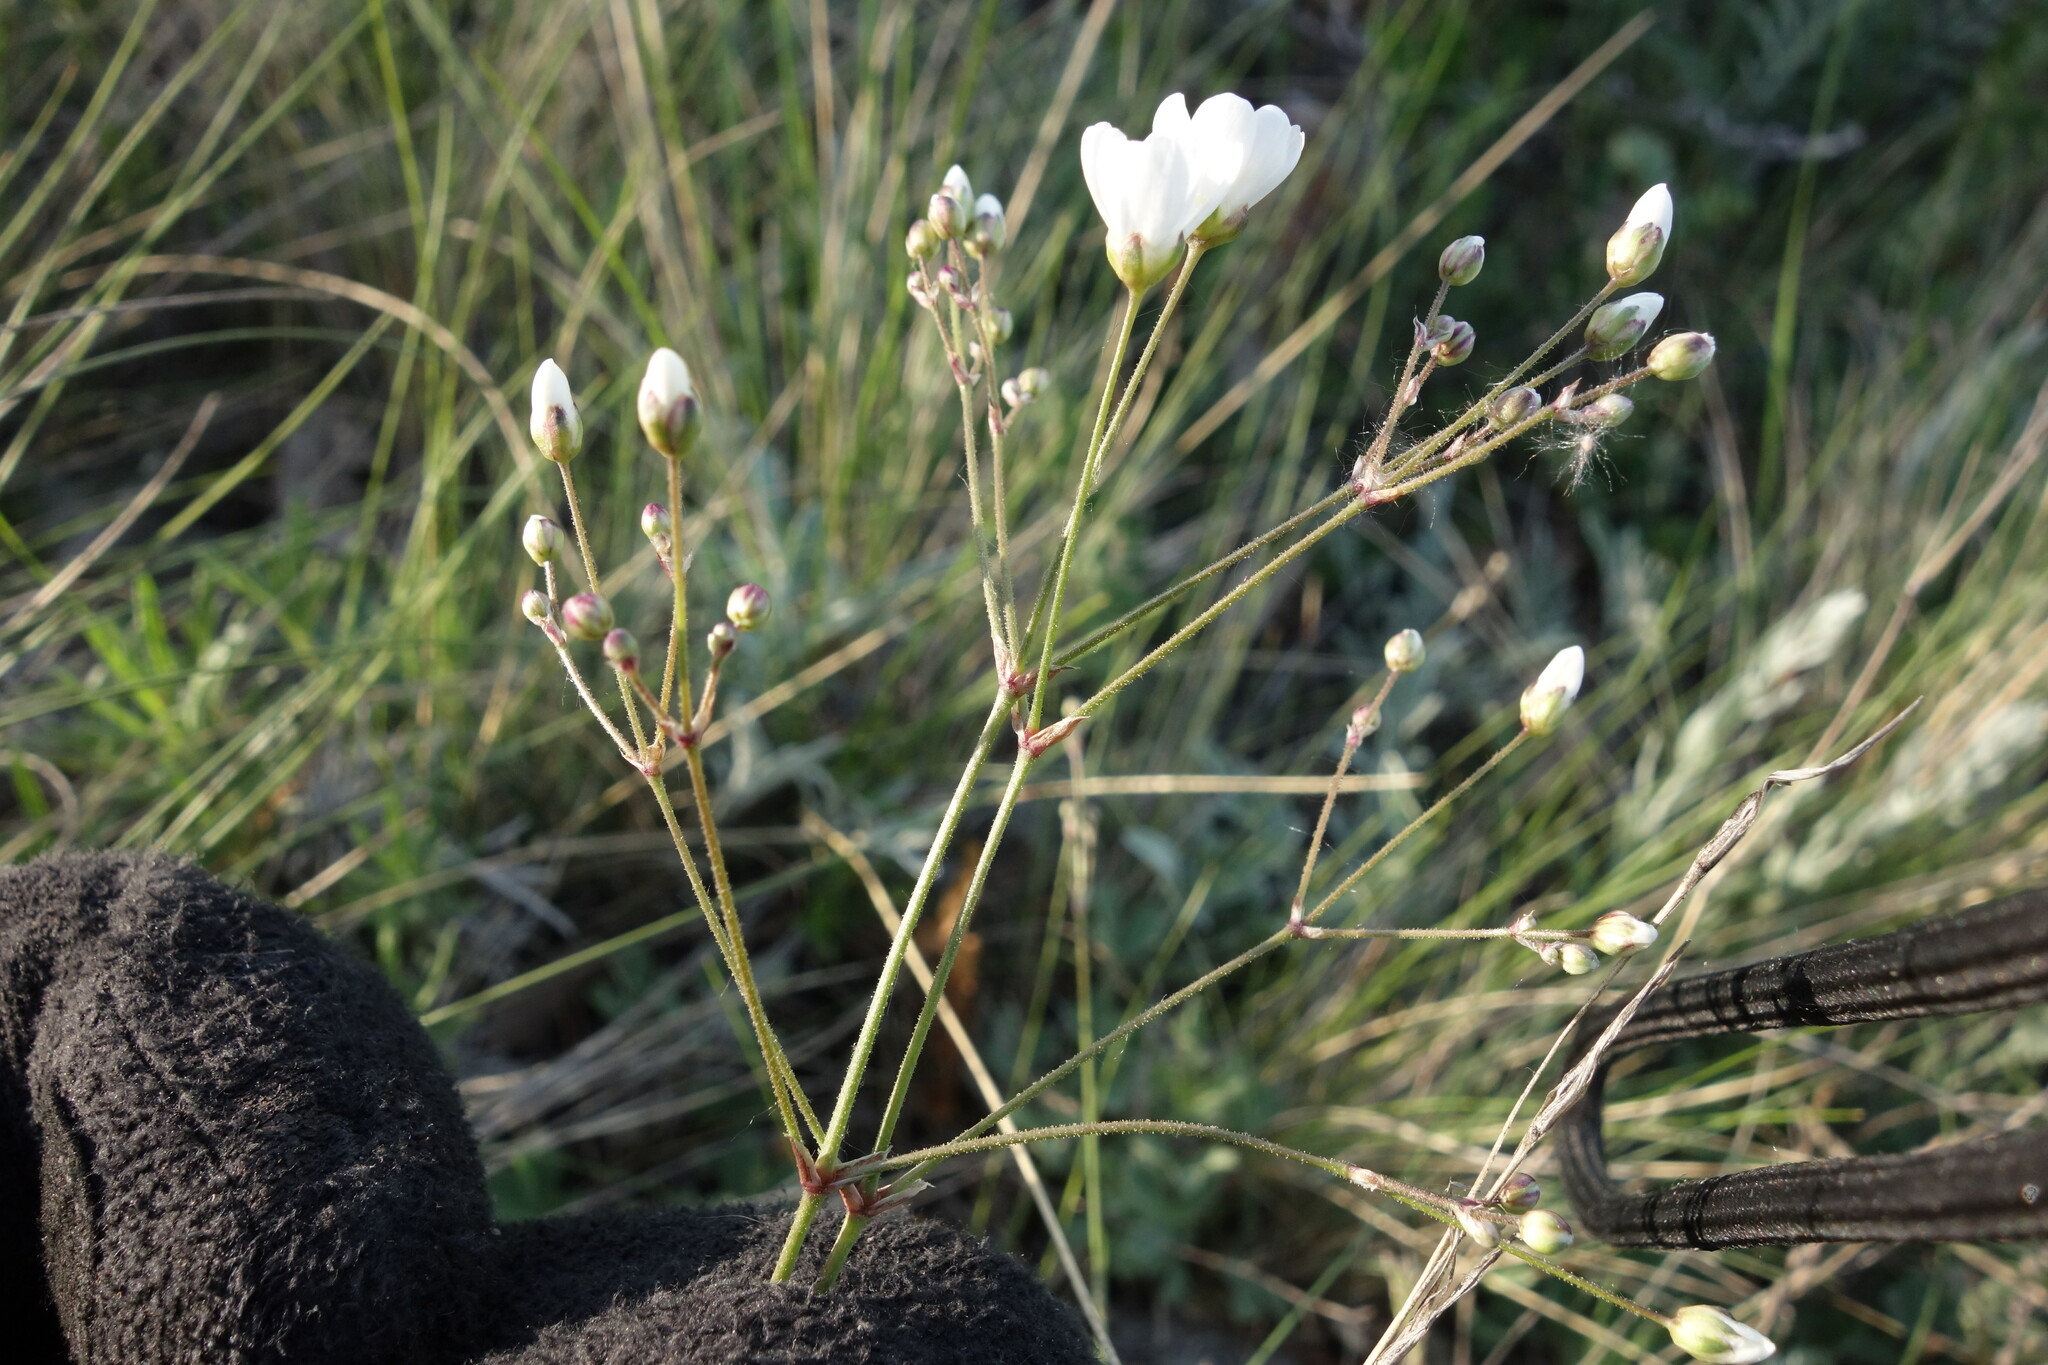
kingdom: Plantae
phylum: Tracheophyta
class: Magnoliopsida
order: Caryophyllales
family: Caryophyllaceae
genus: Eremogone
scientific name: Eremogone biebersteinii
